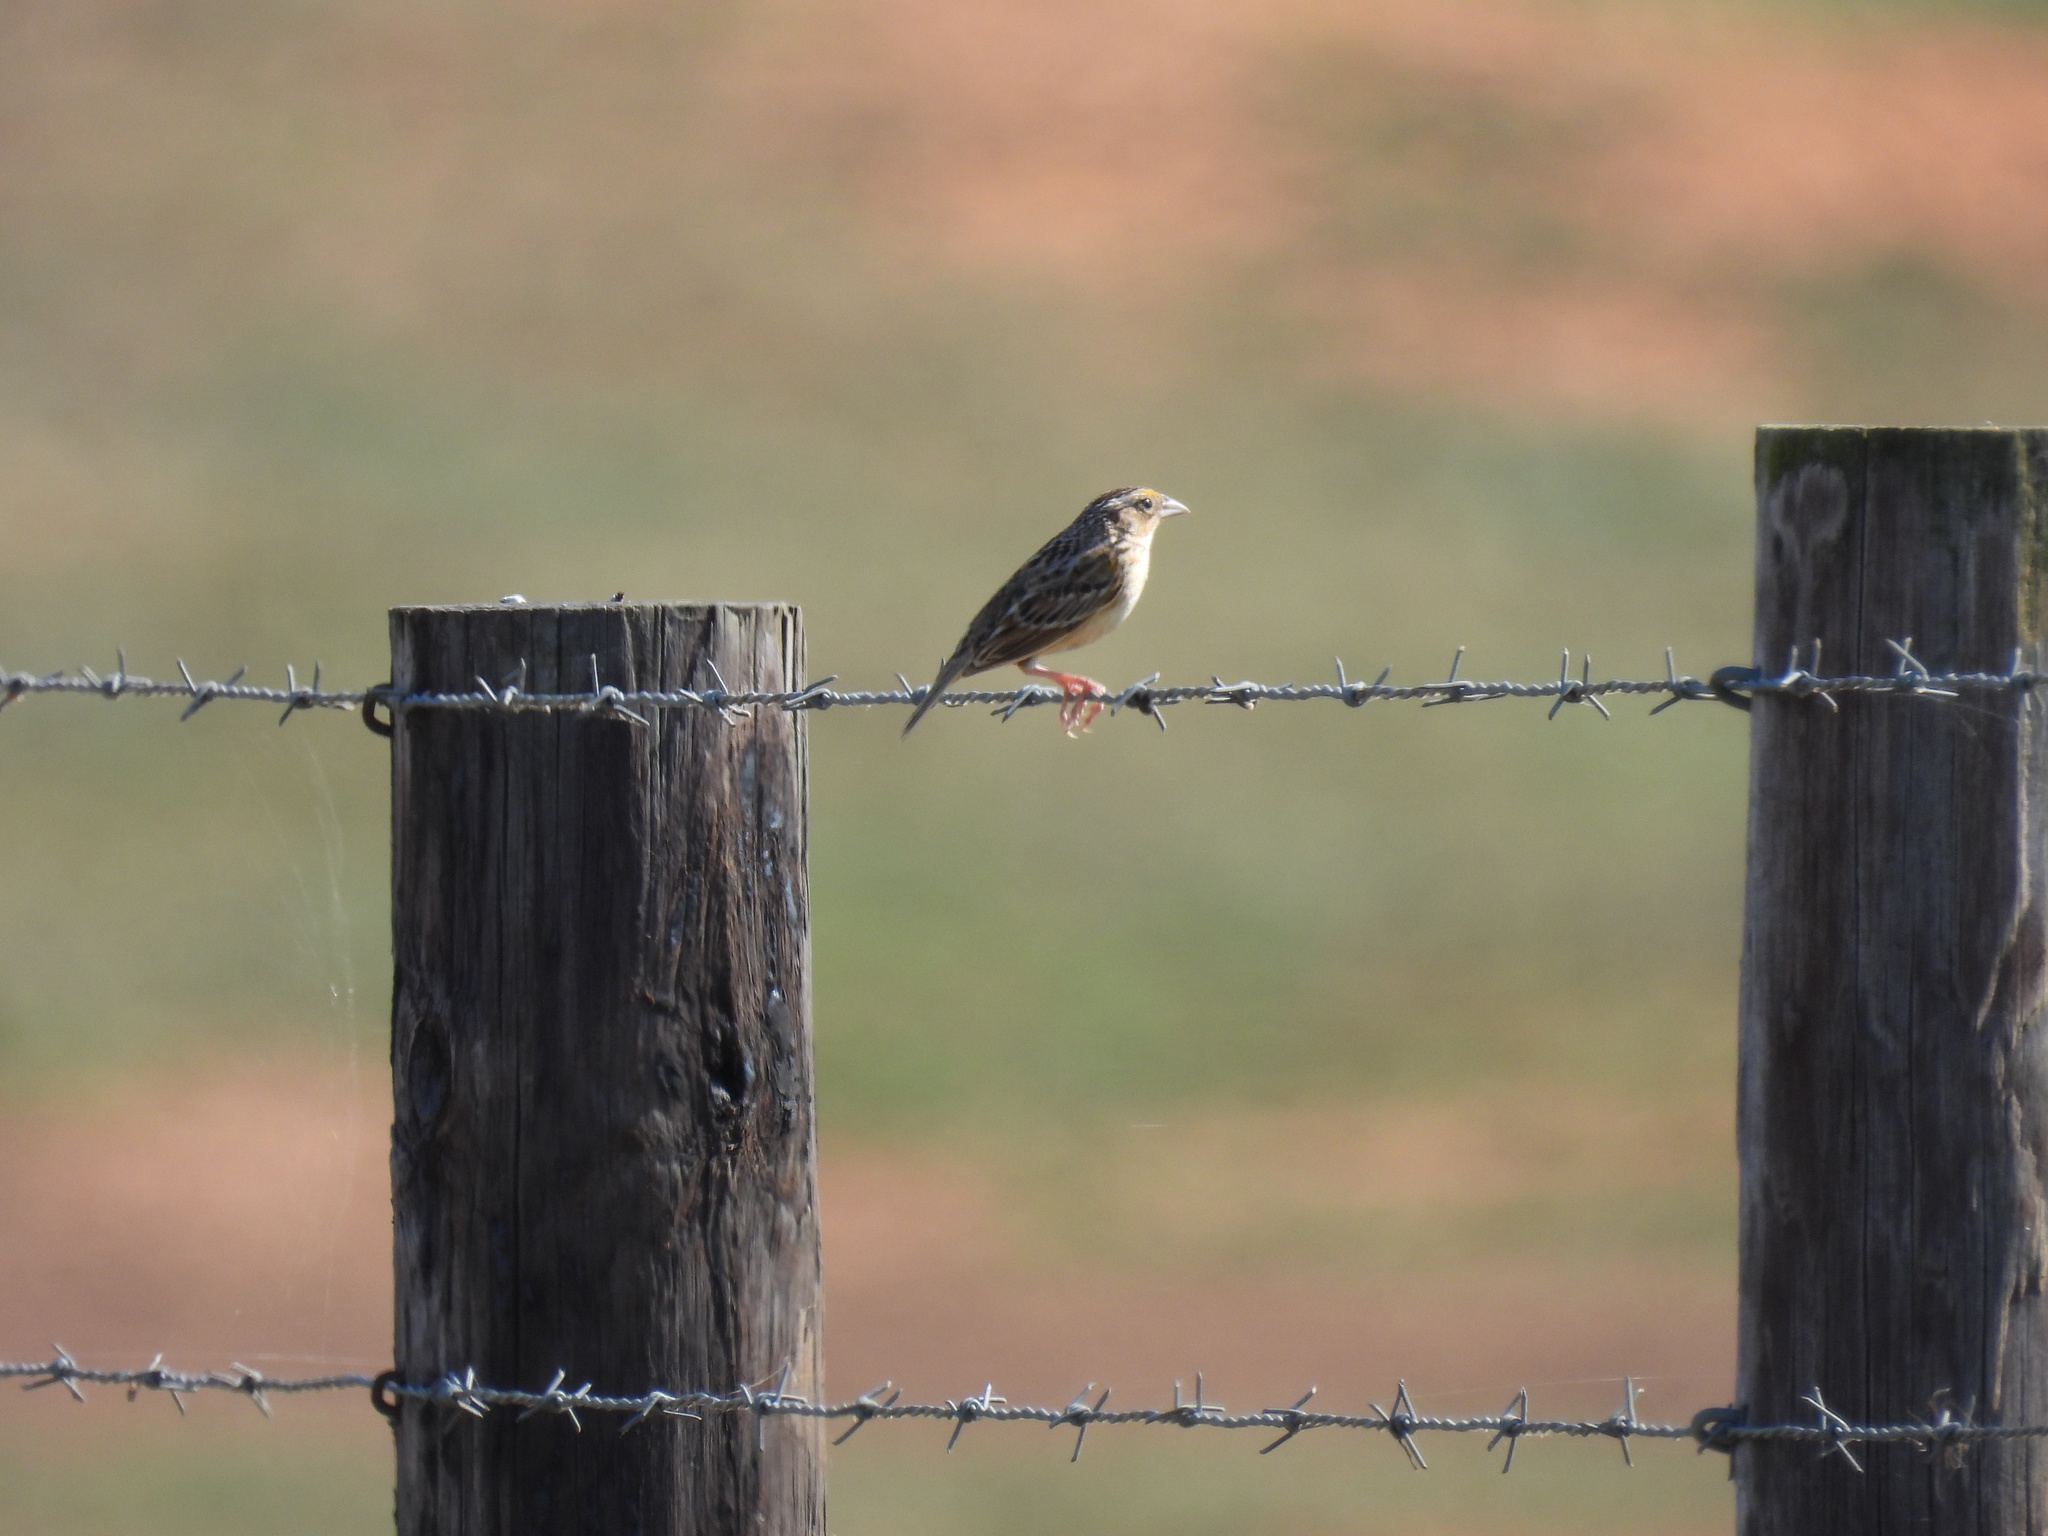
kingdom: Animalia
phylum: Chordata
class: Aves
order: Passeriformes
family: Passerellidae
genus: Ammodramus
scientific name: Ammodramus savannarum
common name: Grasshopper sparrow
